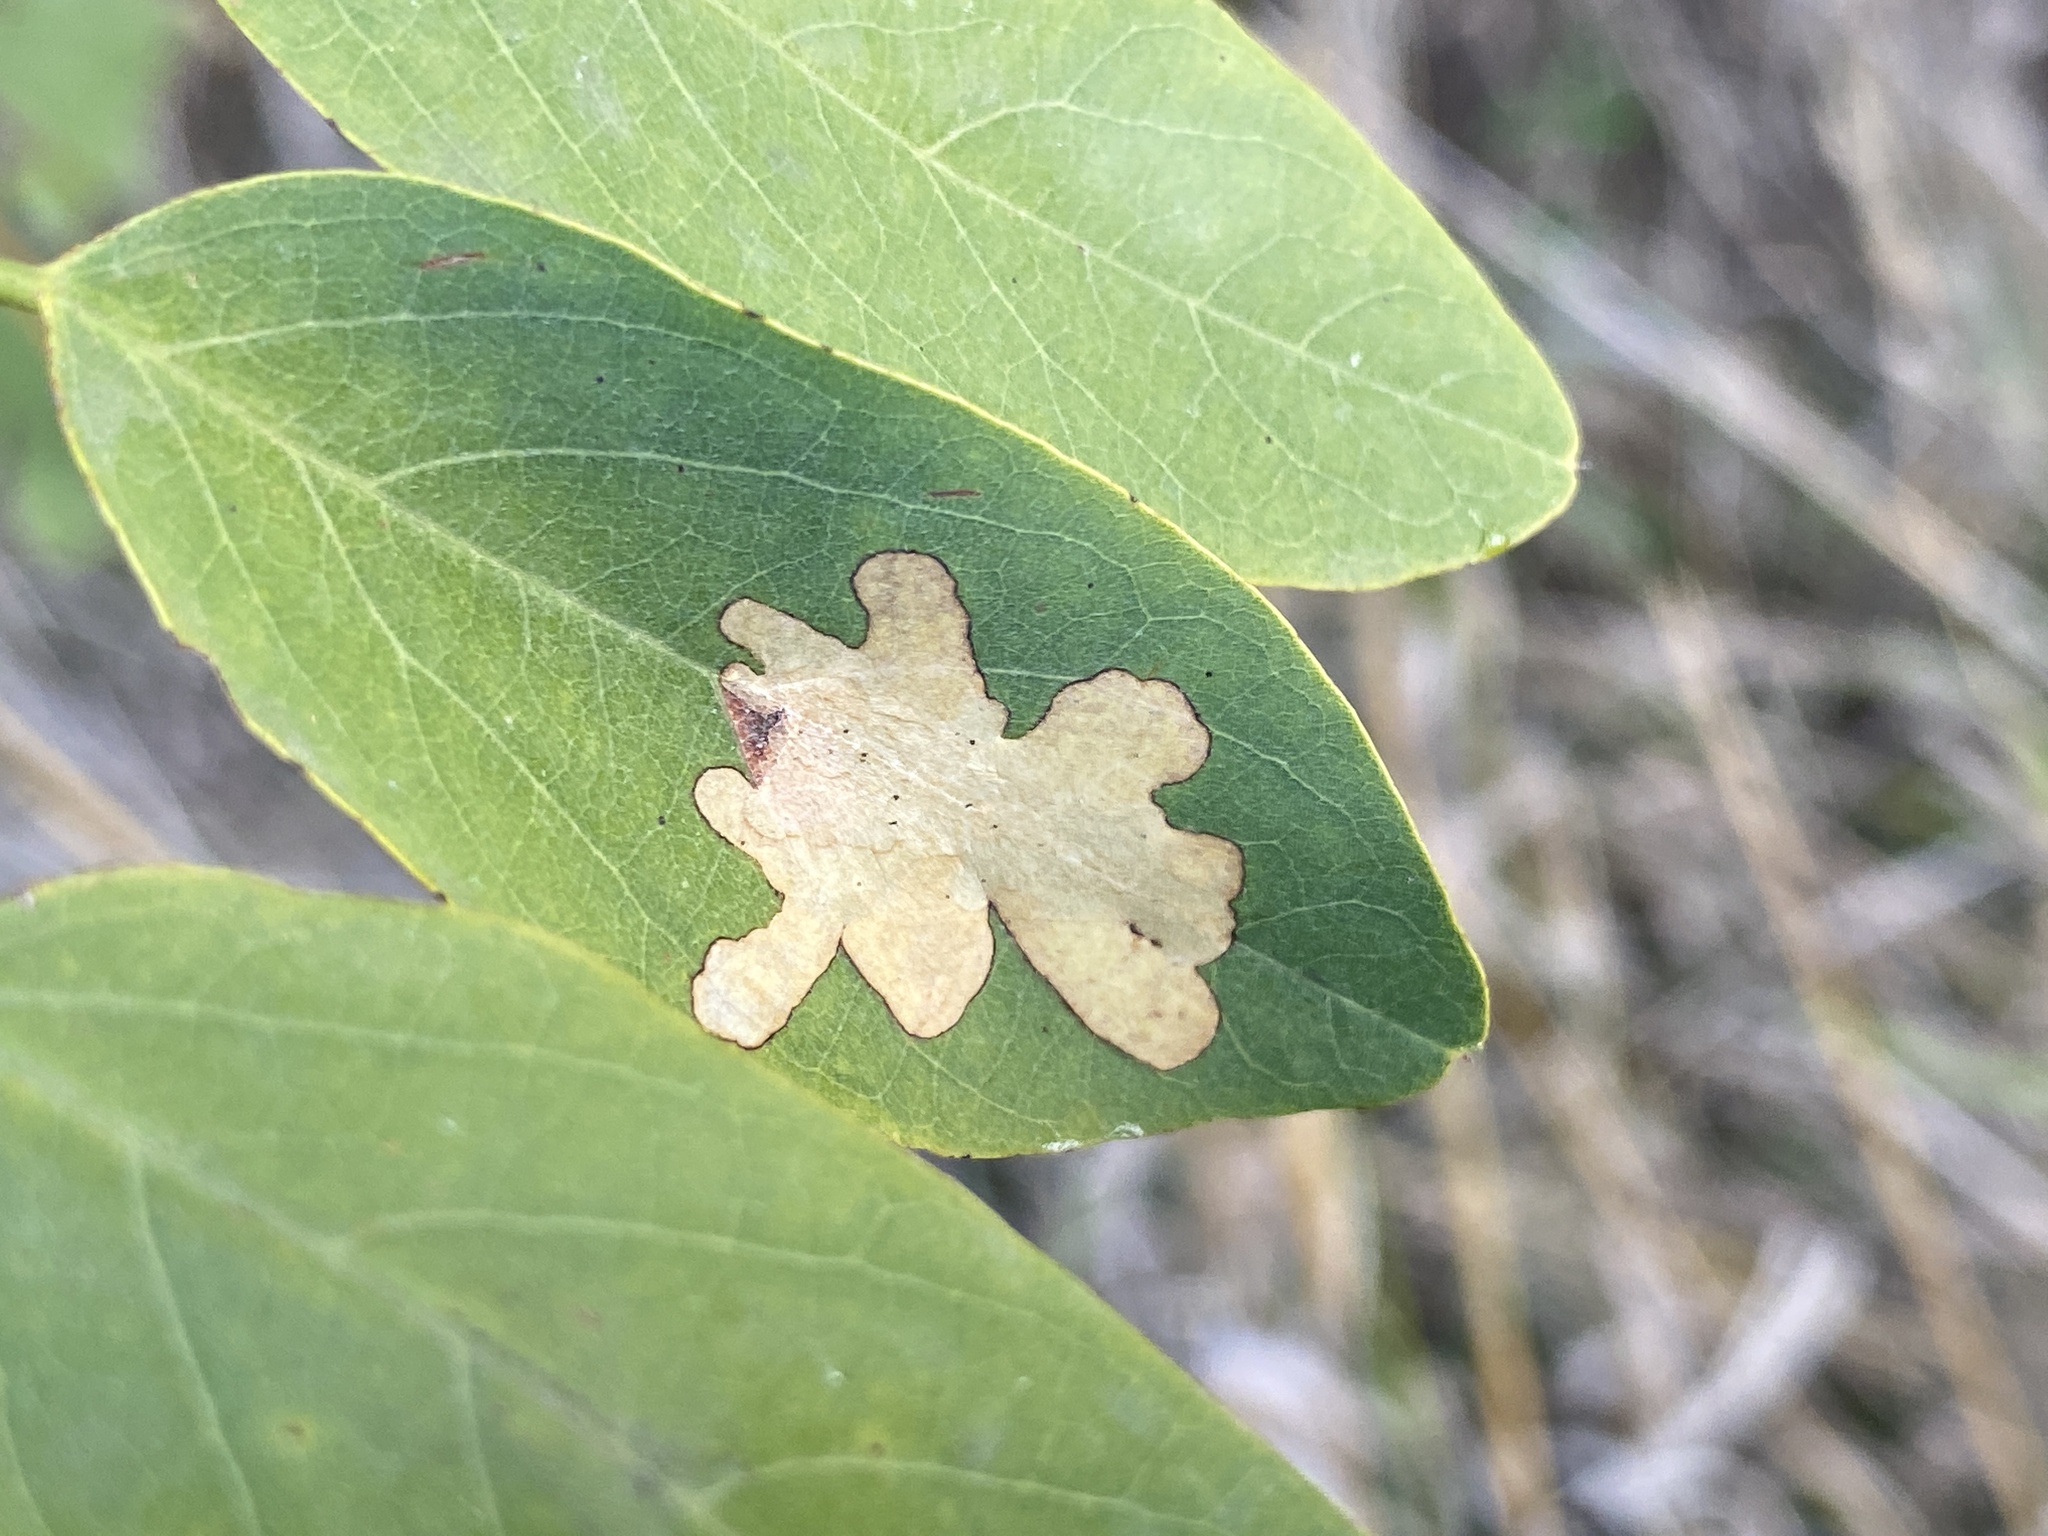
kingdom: Animalia
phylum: Arthropoda
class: Insecta
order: Lepidoptera
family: Gracillariidae
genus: Parectopa
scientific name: Parectopa robiniella
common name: Locust digitate leafminer
